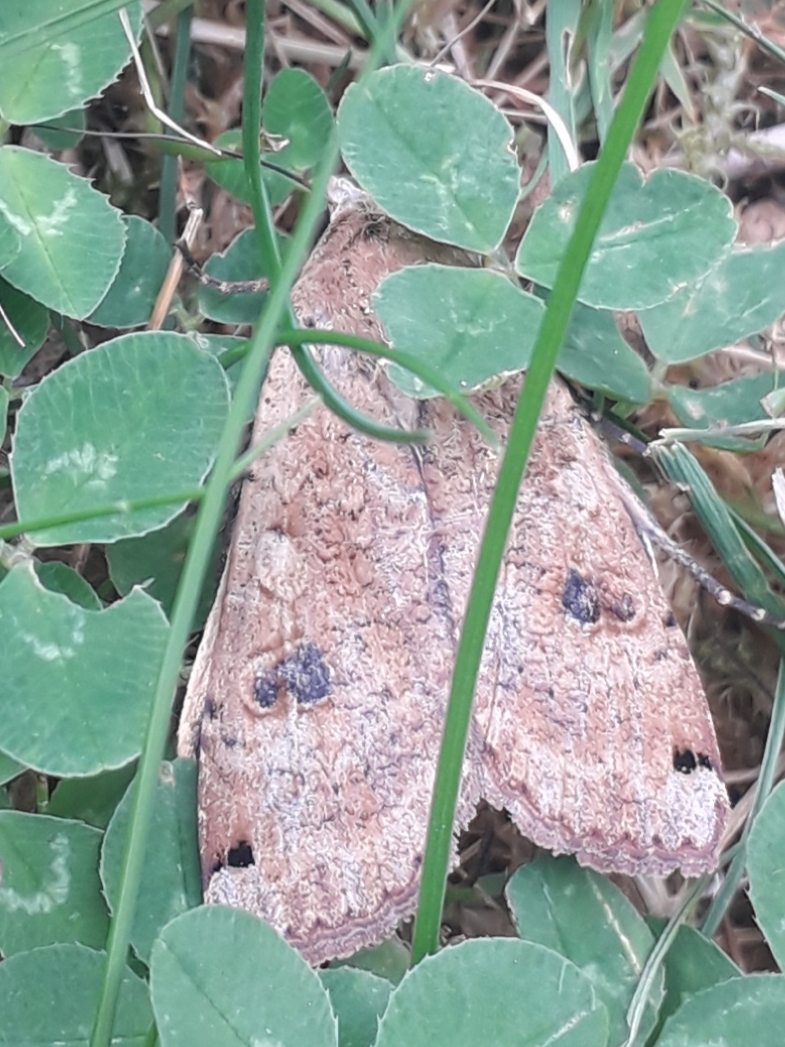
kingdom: Animalia
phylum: Arthropoda
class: Insecta
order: Lepidoptera
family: Noctuidae
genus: Noctua
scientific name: Noctua pronuba
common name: Large yellow underwing
